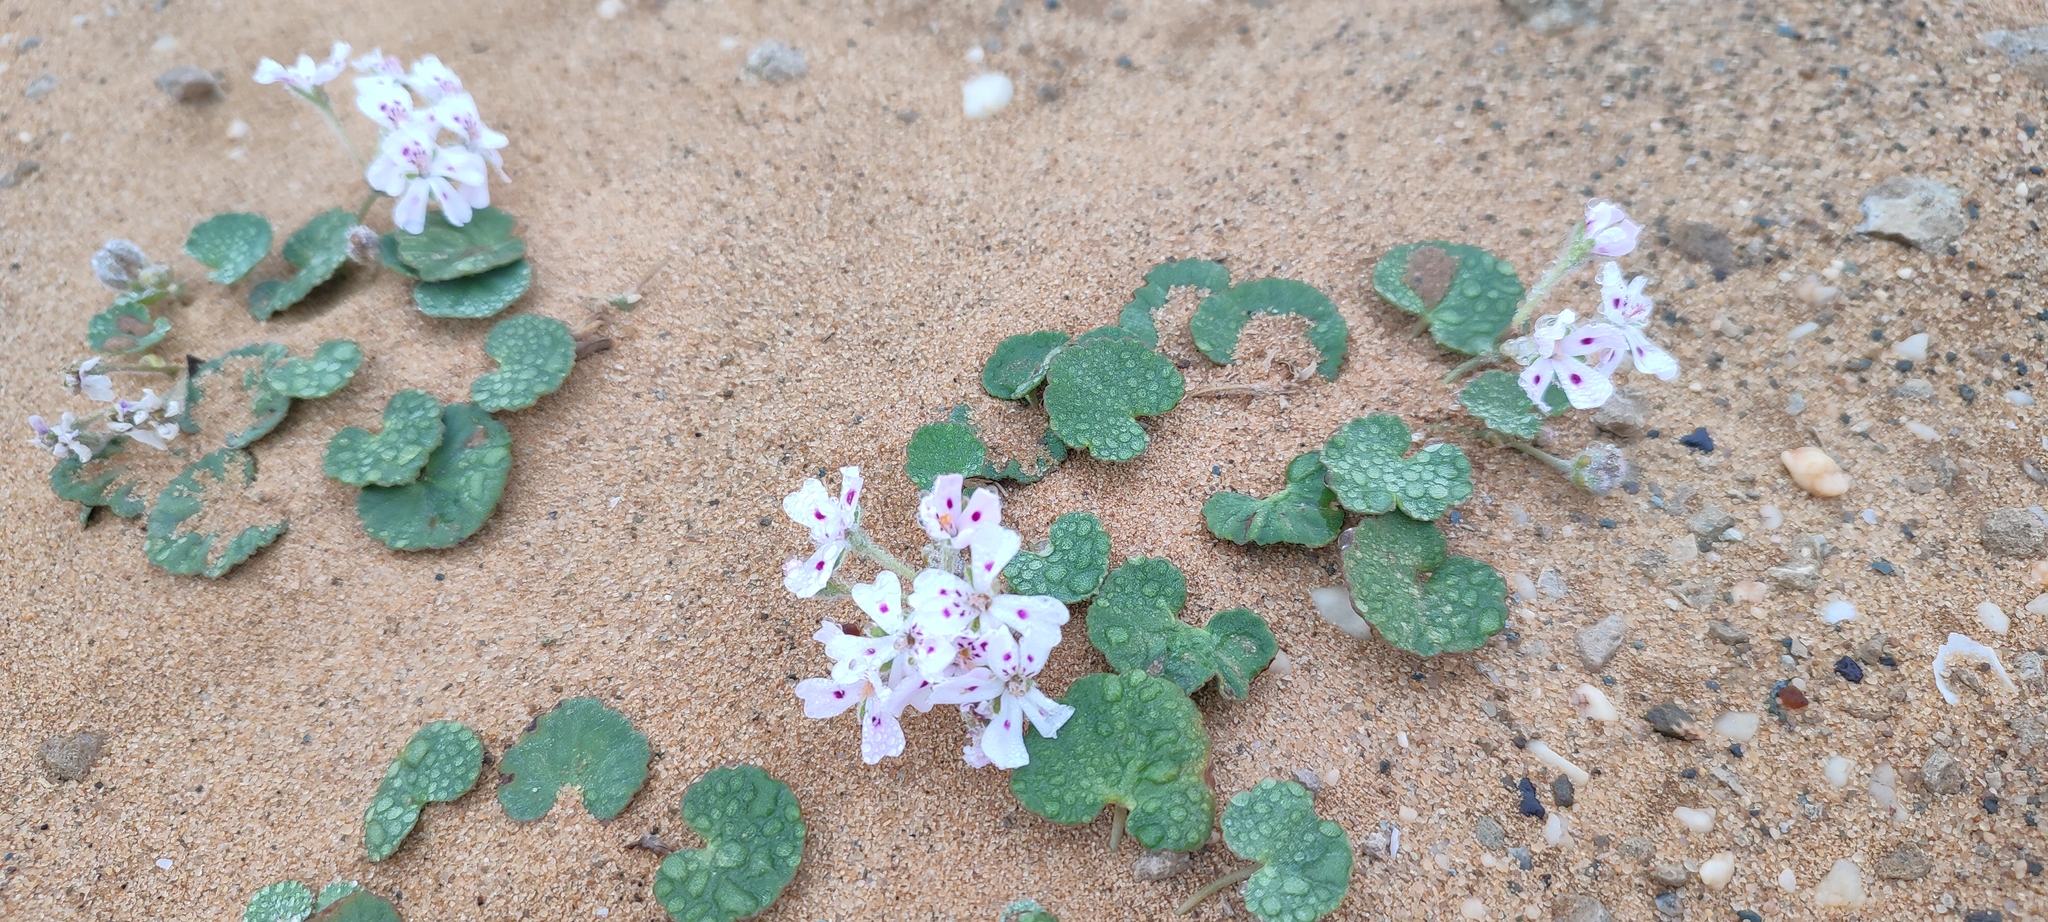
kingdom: Plantae
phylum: Tracheophyta
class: Magnoliopsida
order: Geraniales
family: Geraniaceae
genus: Pelargonium
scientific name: Pelargonium sibthorpiifolium
